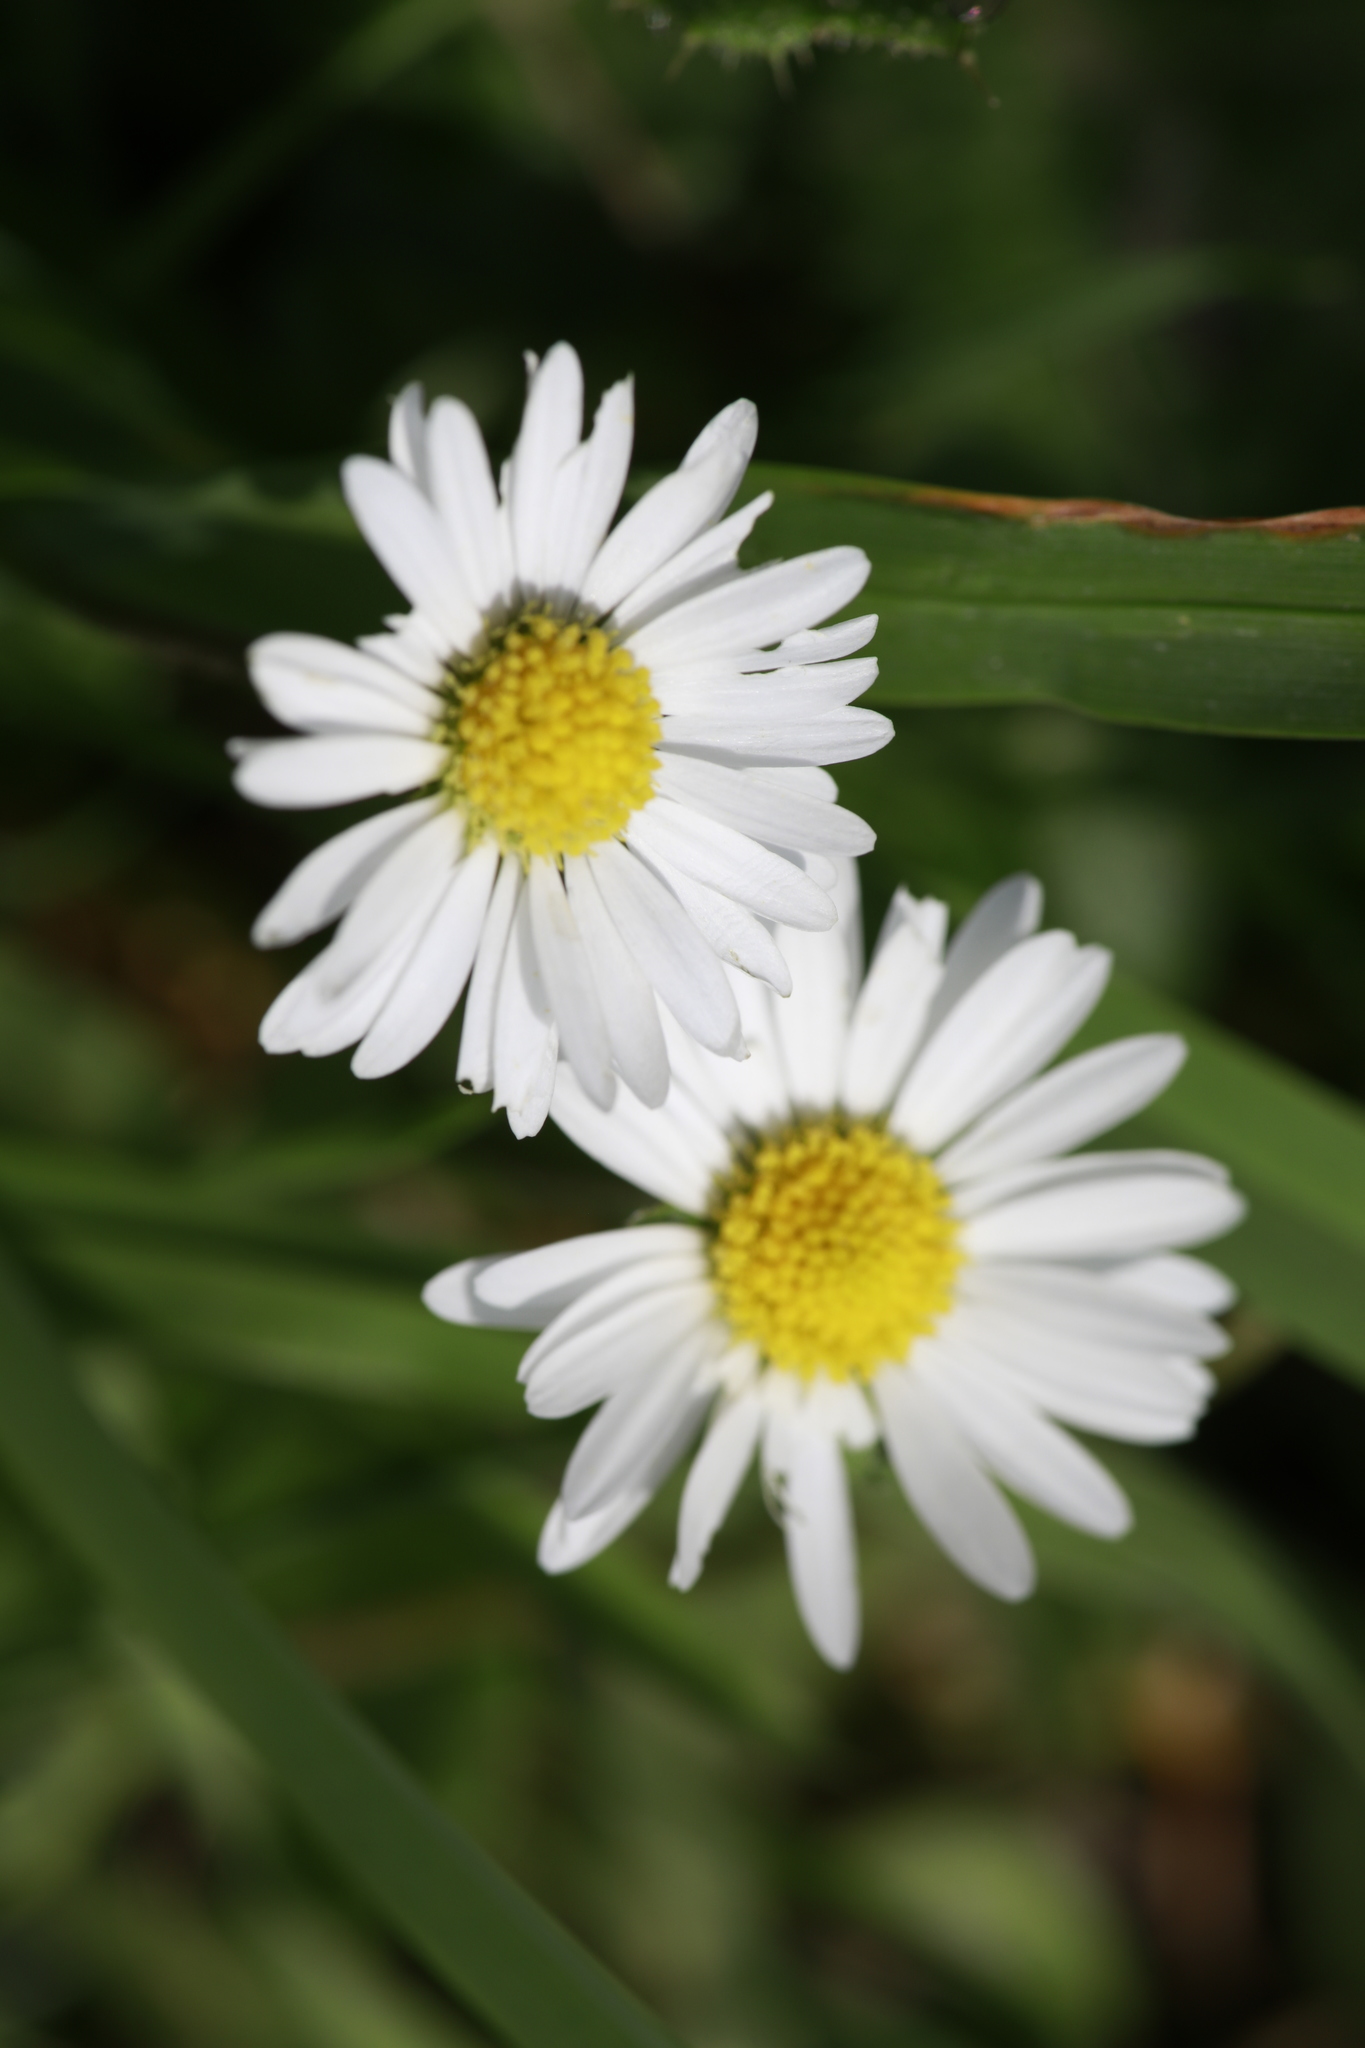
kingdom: Plantae
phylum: Tracheophyta
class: Magnoliopsida
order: Asterales
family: Asteraceae
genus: Bellis
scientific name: Bellis perennis
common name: Lawndaisy
